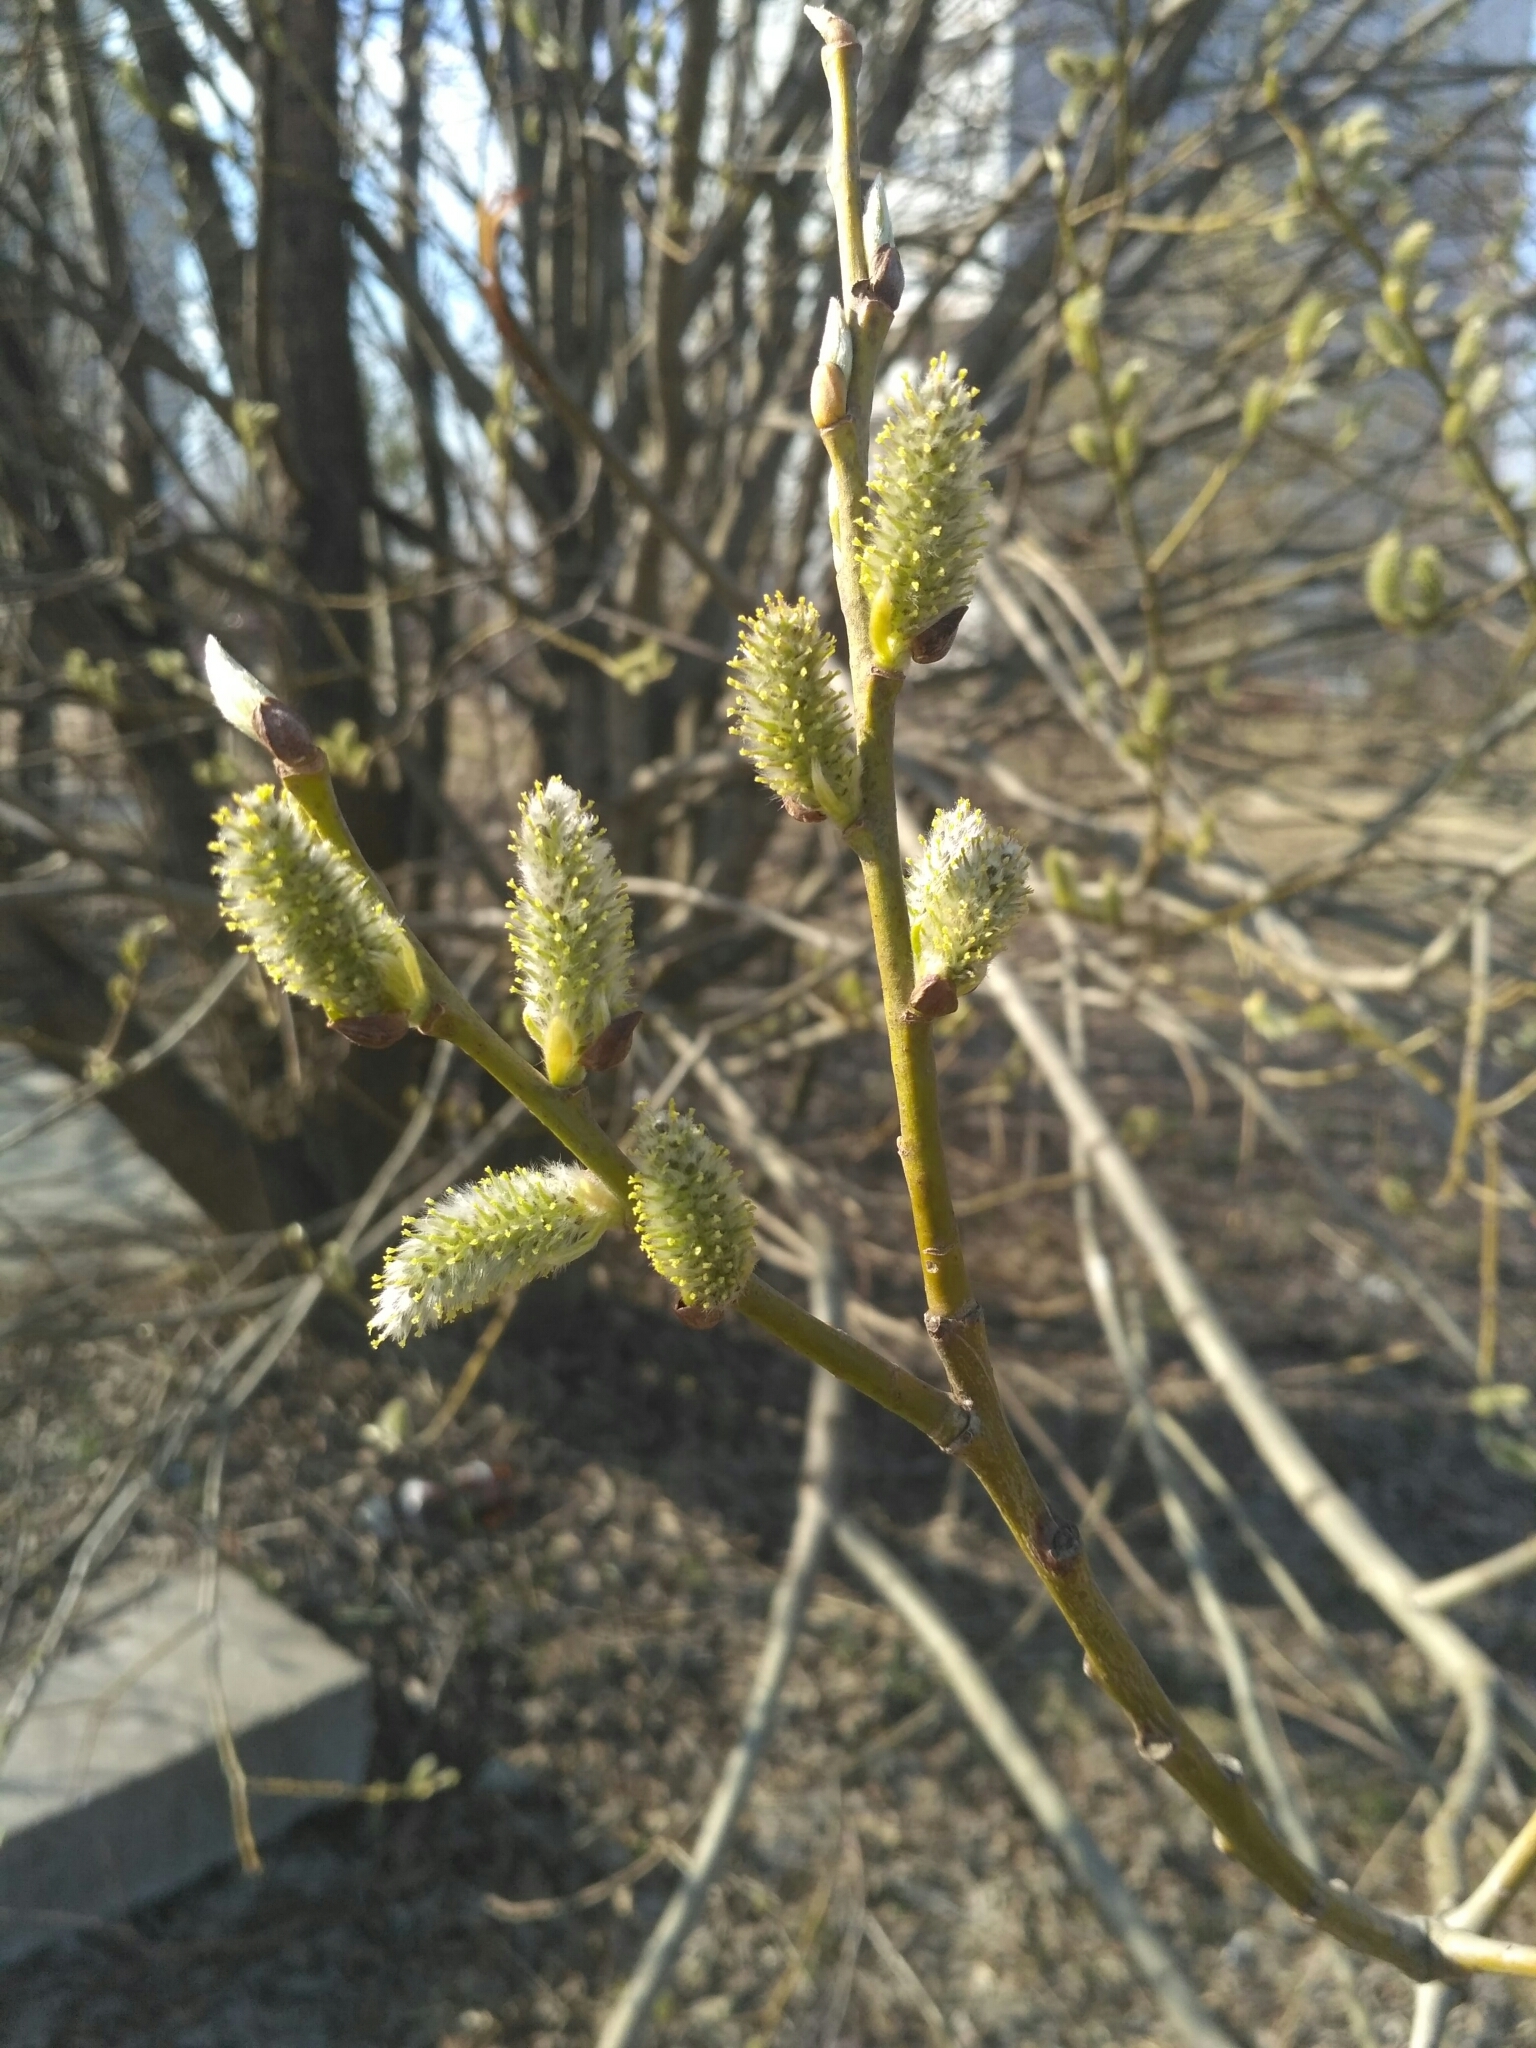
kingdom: Plantae
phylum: Tracheophyta
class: Magnoliopsida
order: Malpighiales
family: Salicaceae
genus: Salix
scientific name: Salix caprea
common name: Goat willow
